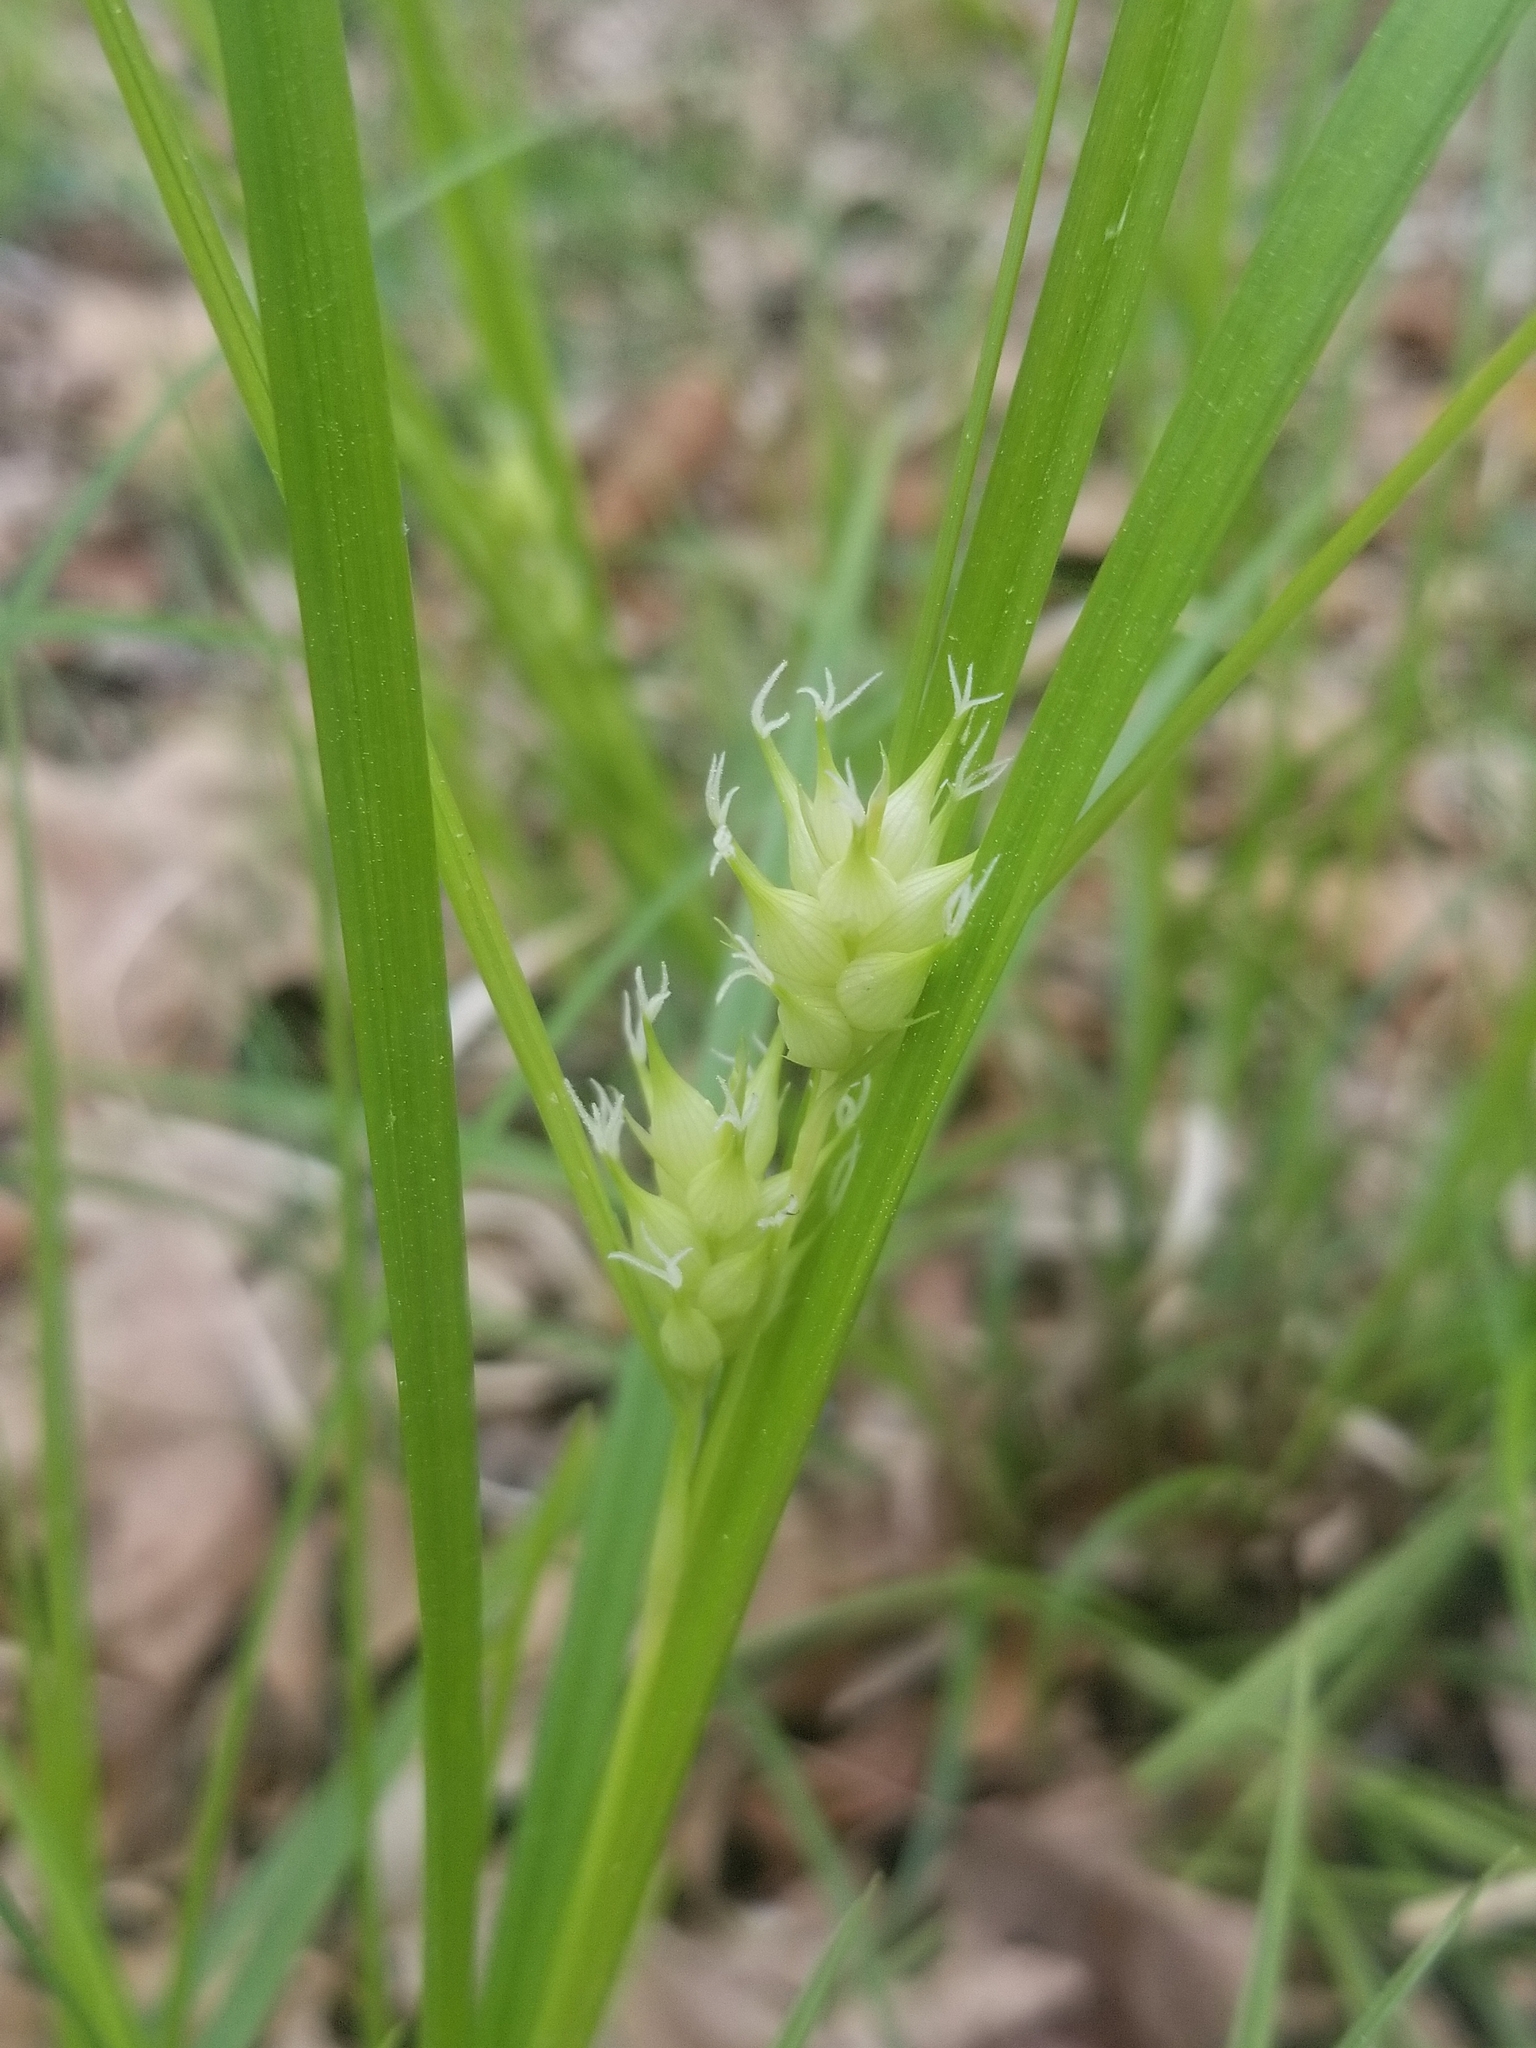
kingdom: Plantae
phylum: Tracheophyta
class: Liliopsida
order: Poales
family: Cyperaceae
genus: Carex
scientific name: Carex intumescens
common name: Greater bladder sedge
